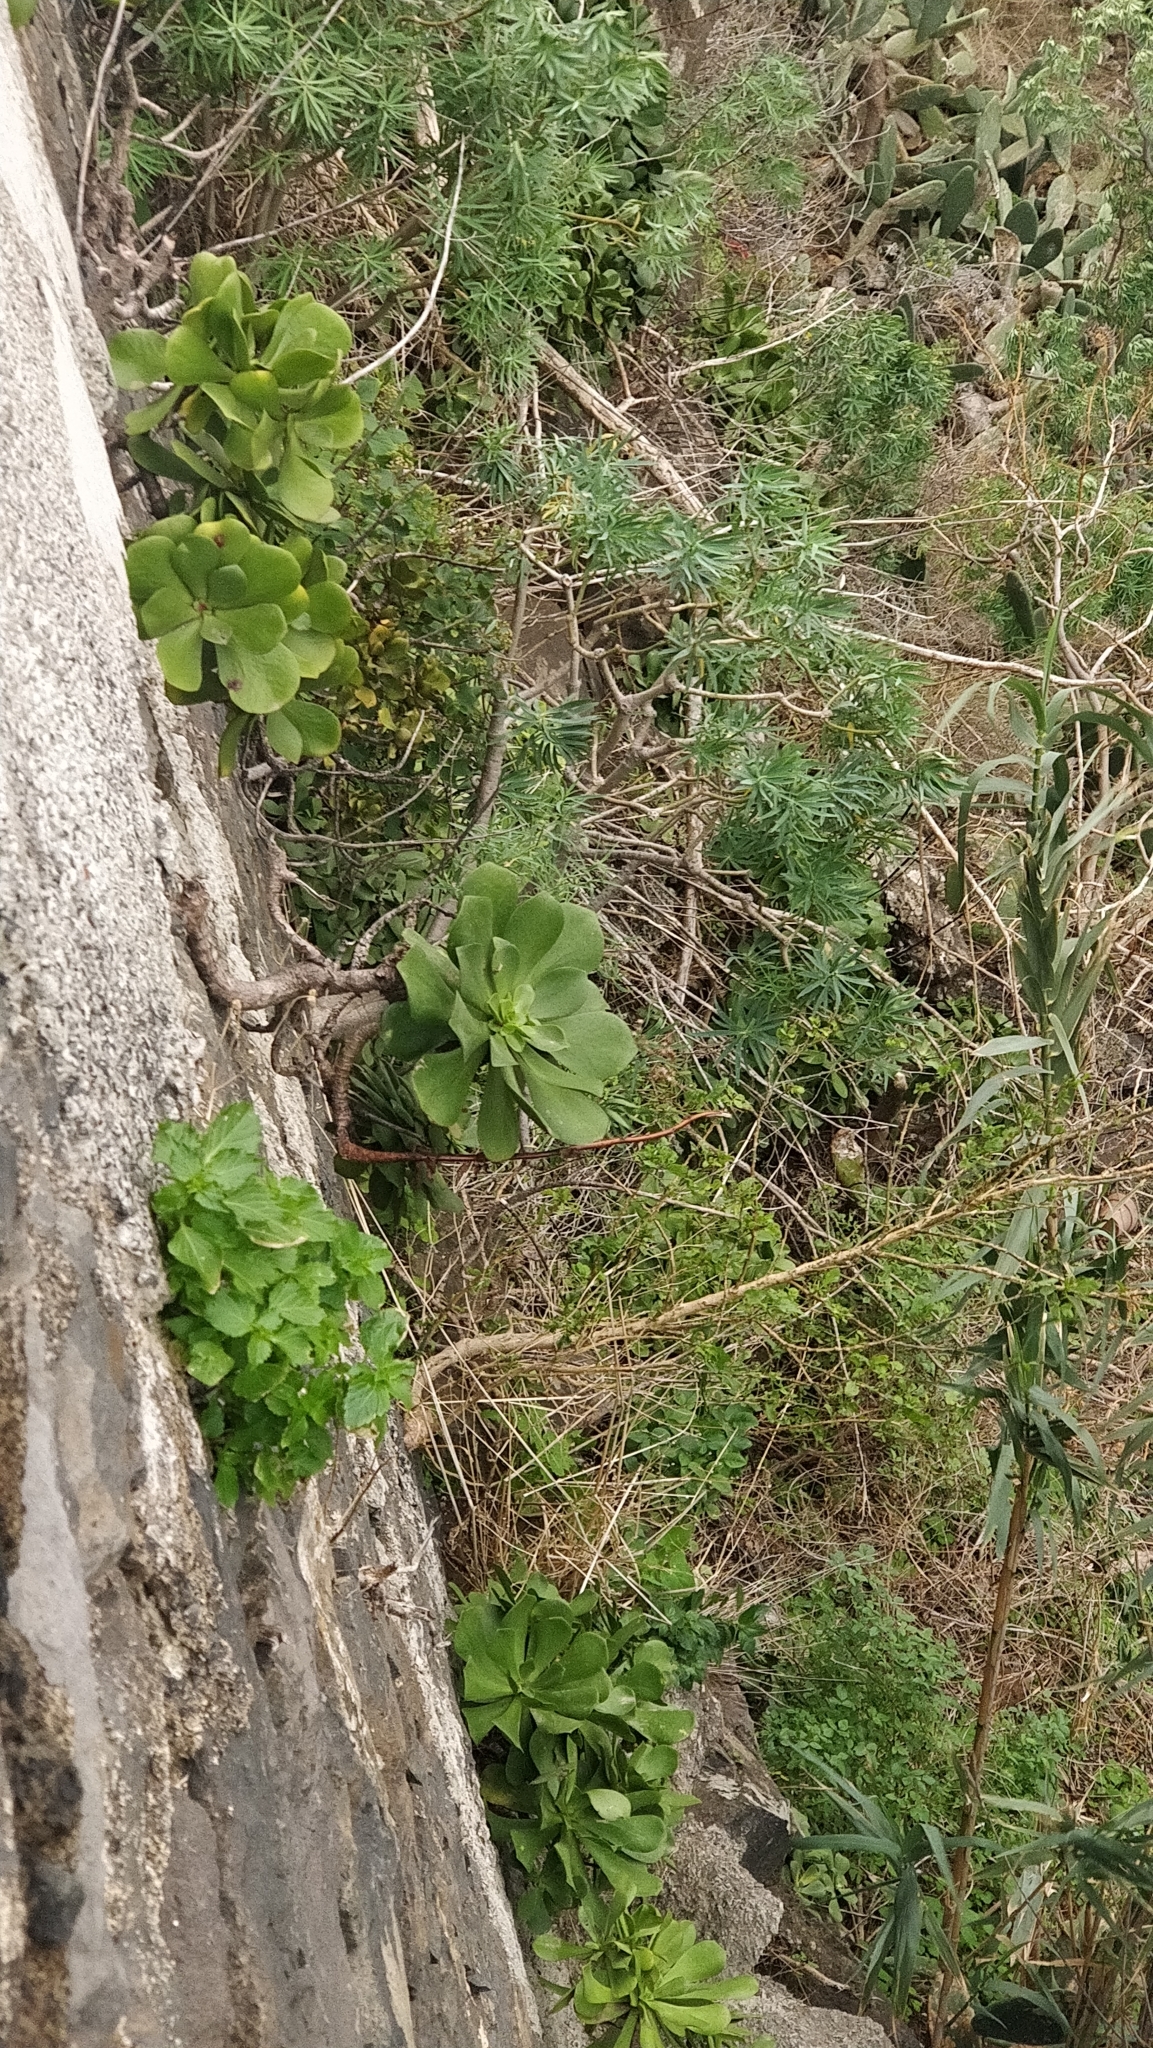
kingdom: Plantae
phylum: Tracheophyta
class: Magnoliopsida
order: Saxifragales
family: Crassulaceae
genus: Aeonium
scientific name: Aeonium glutinosum
